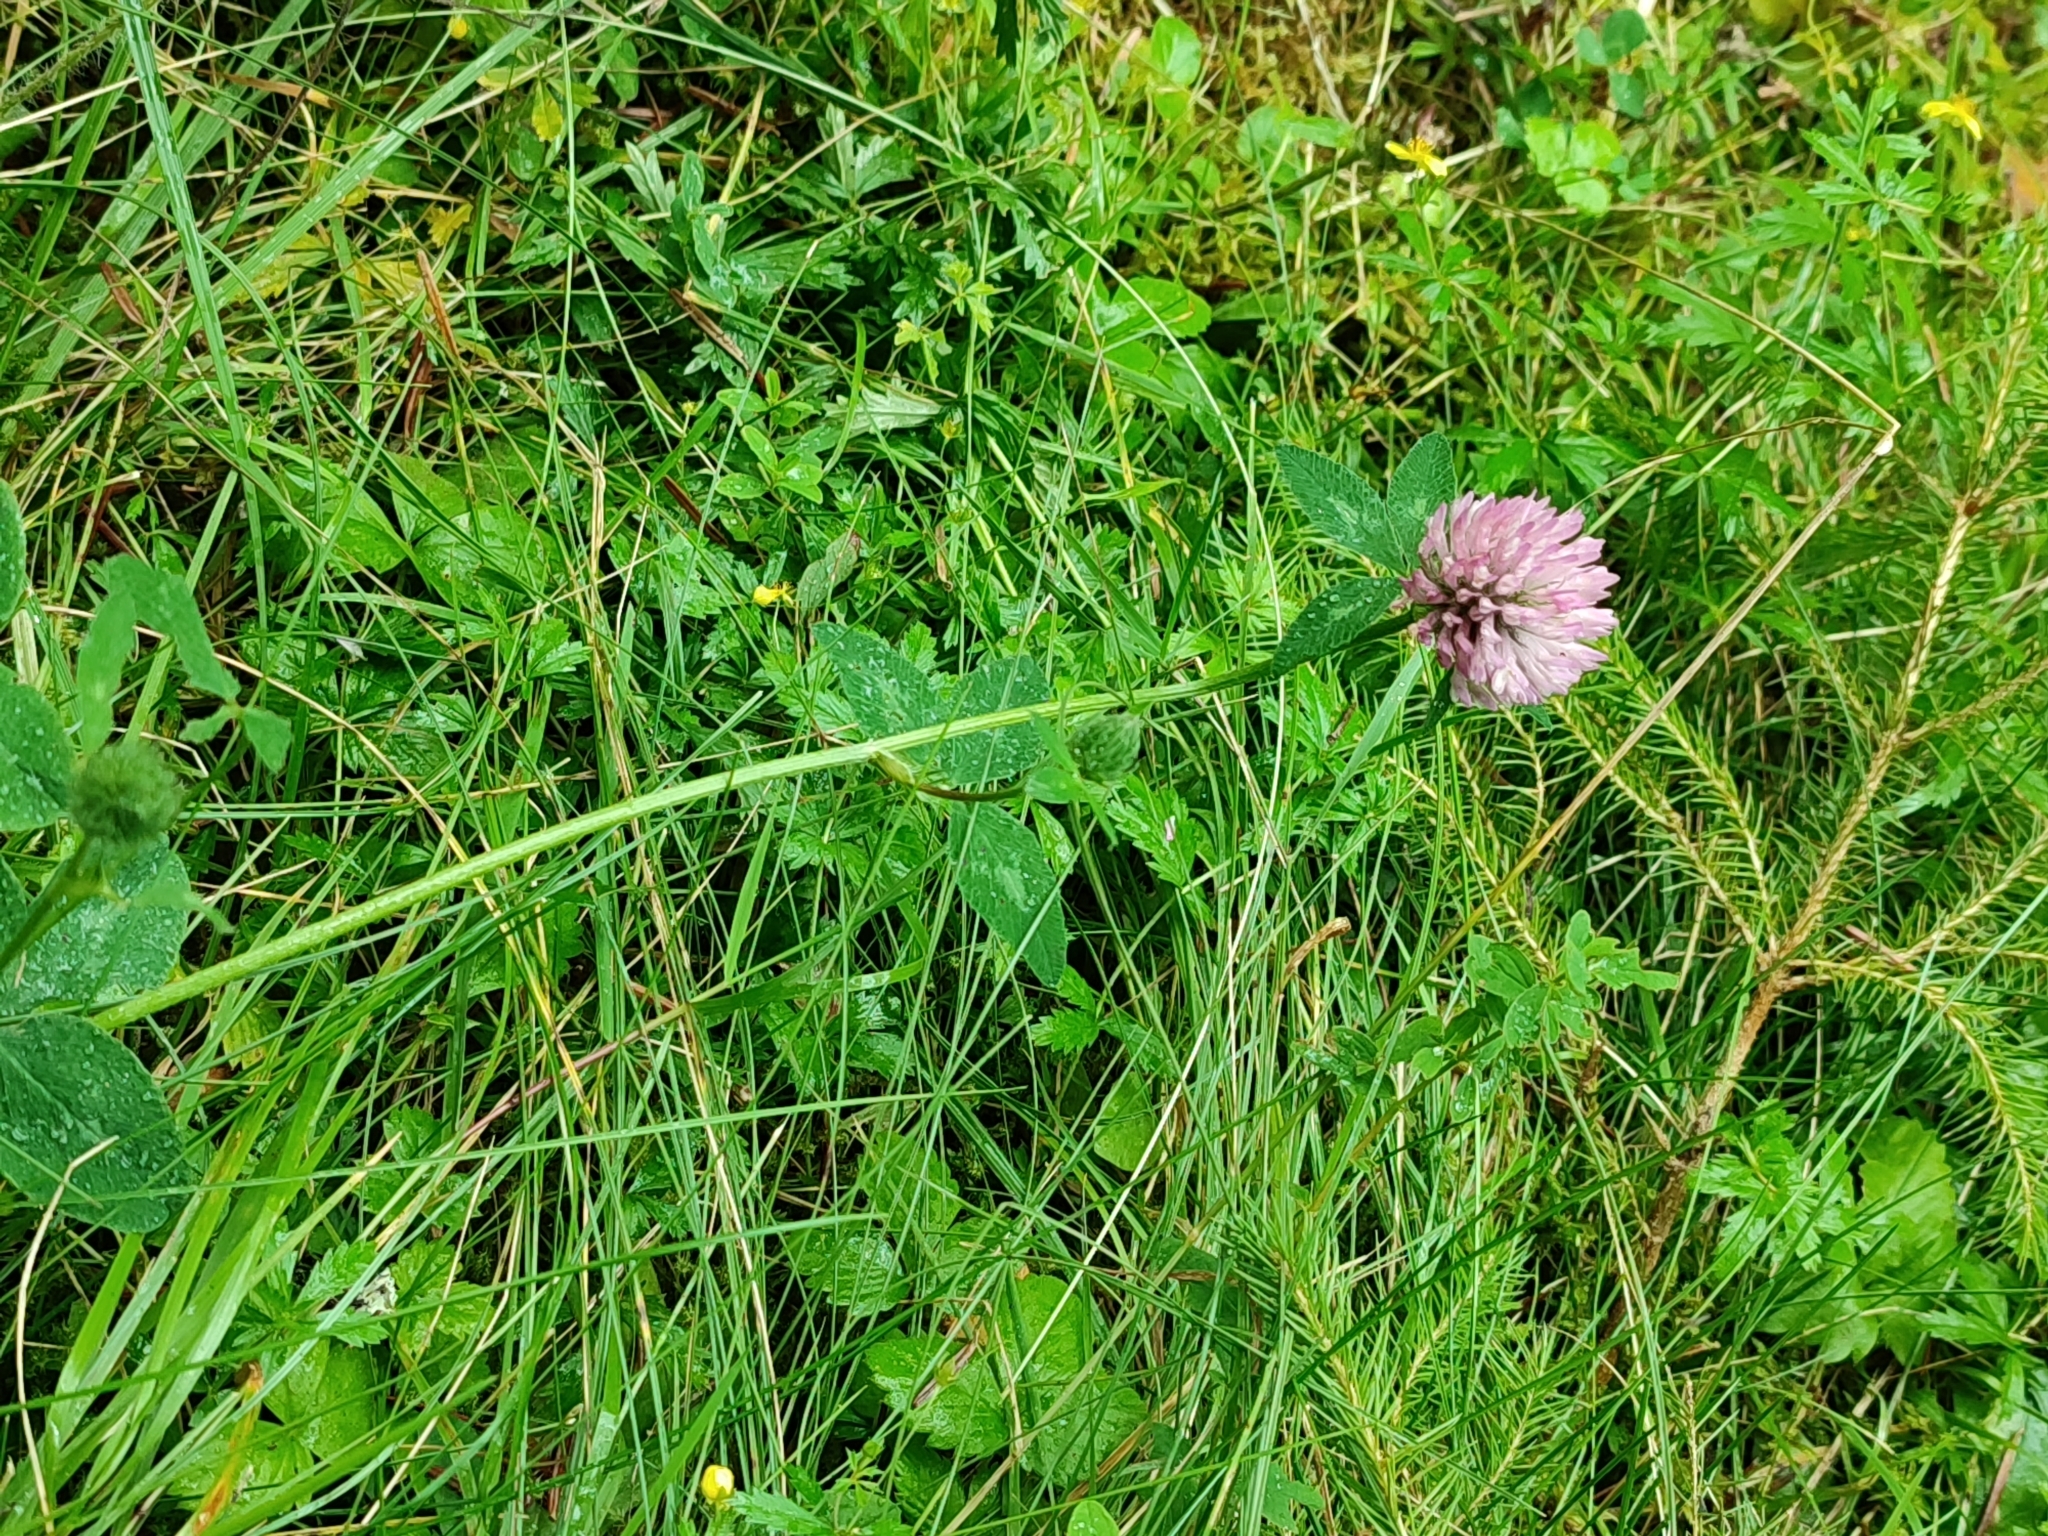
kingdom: Plantae
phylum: Tracheophyta
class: Magnoliopsida
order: Fabales
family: Fabaceae
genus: Trifolium
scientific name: Trifolium pratense
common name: Red clover
